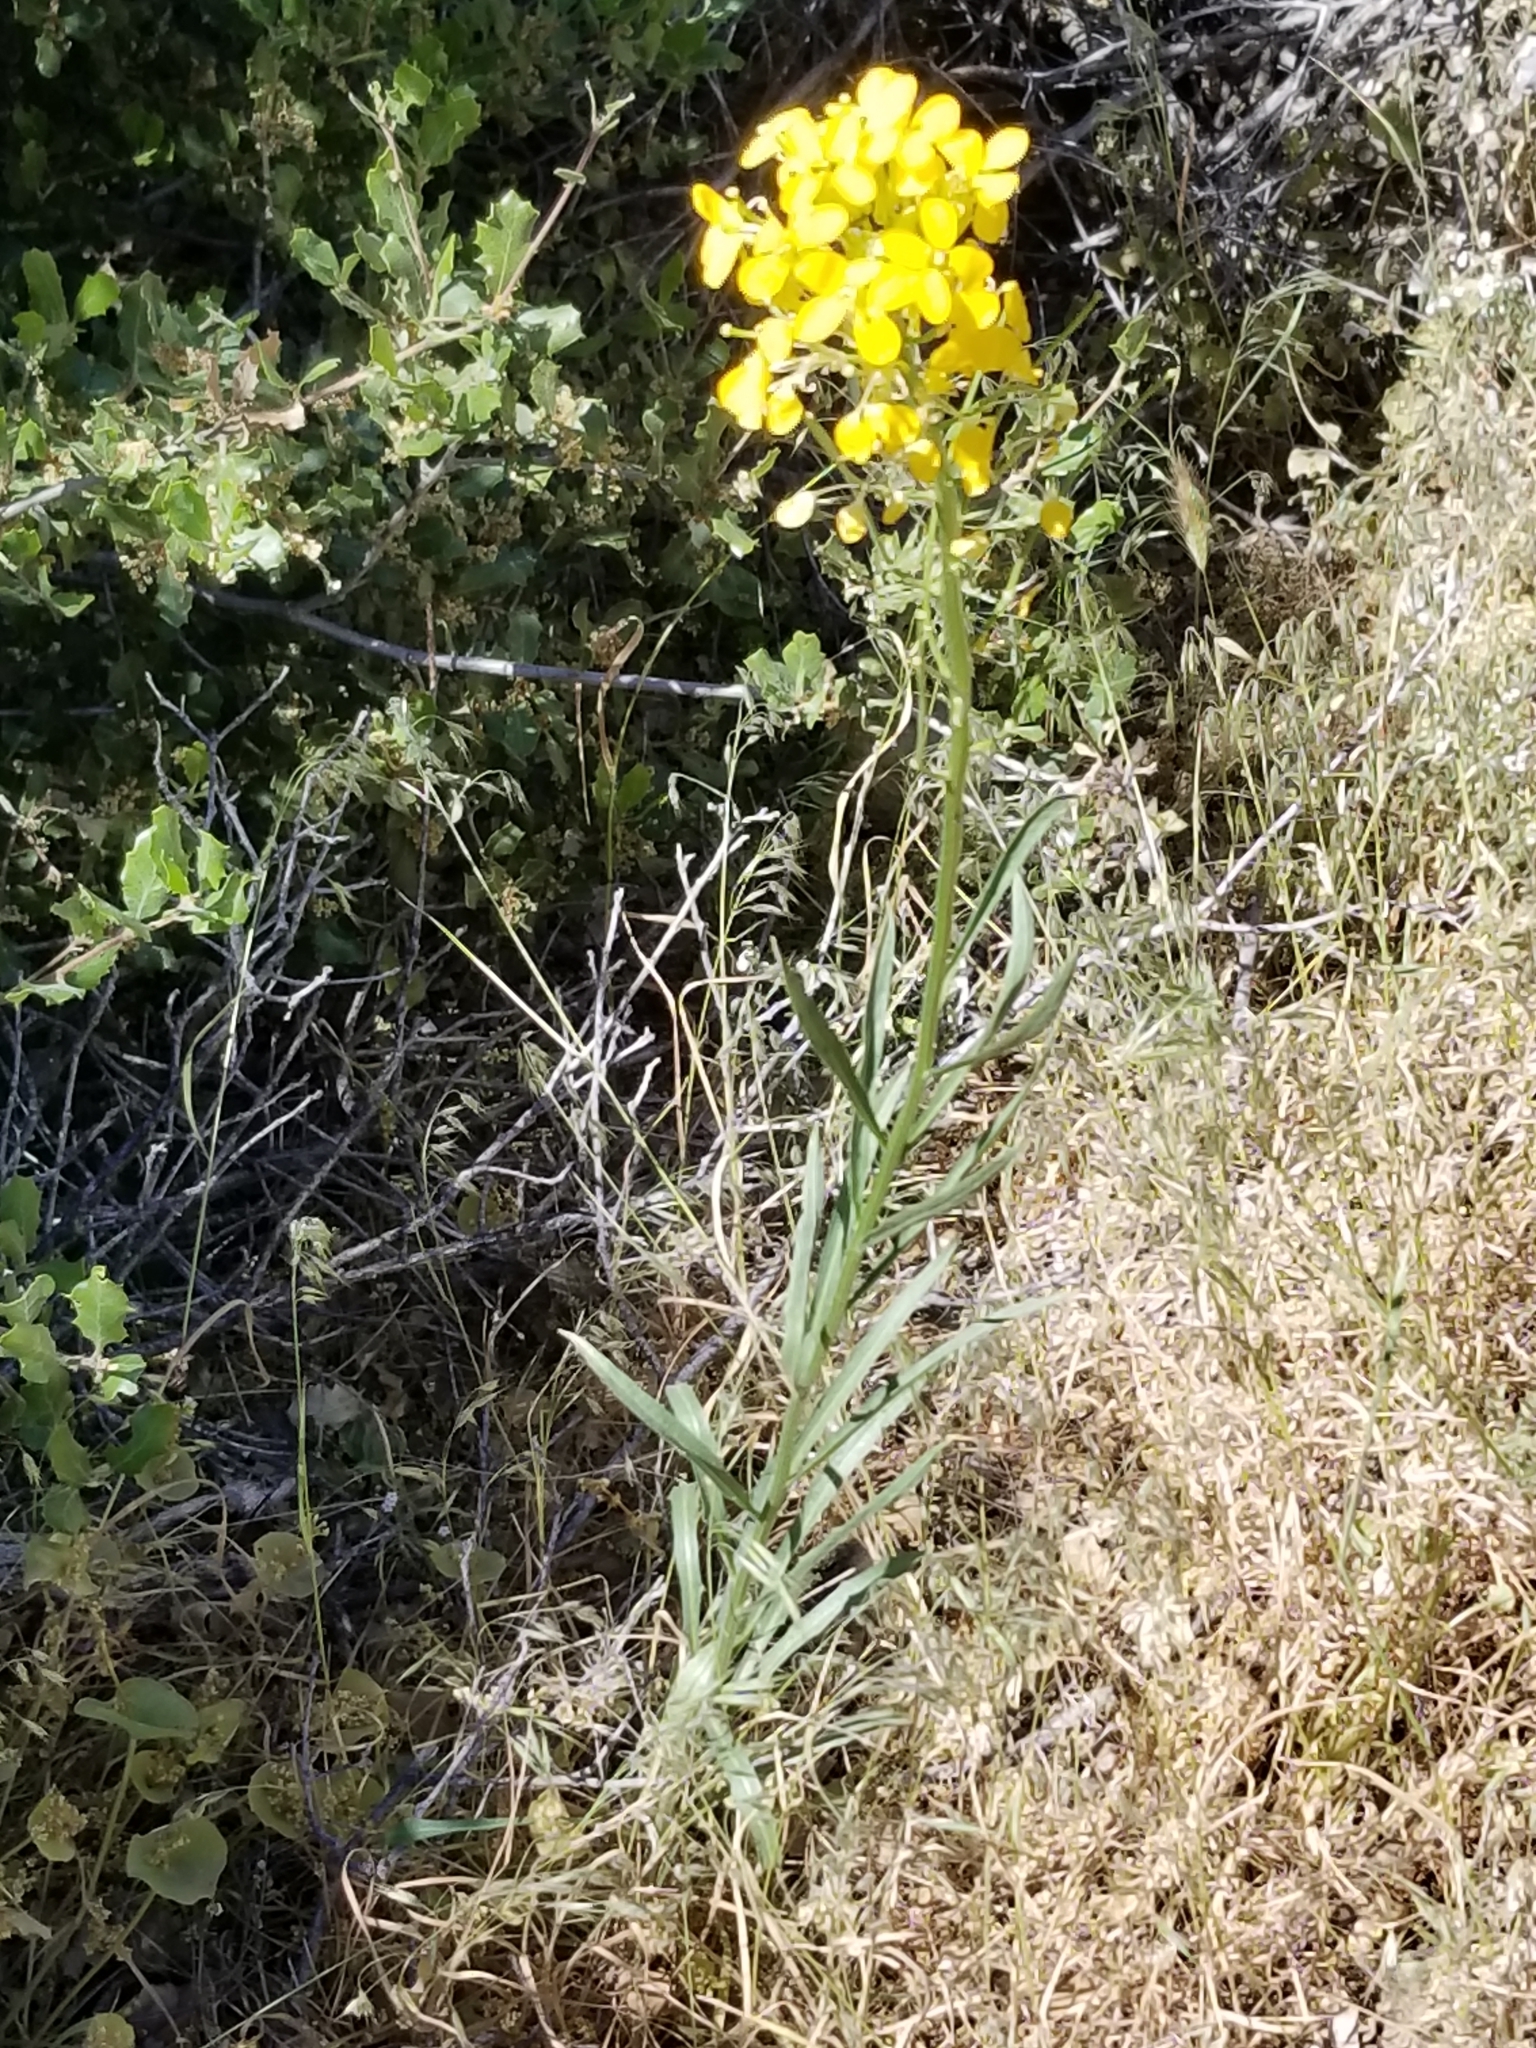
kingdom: Plantae
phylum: Tracheophyta
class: Magnoliopsida
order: Brassicales
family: Brassicaceae
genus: Erysimum
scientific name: Erysimum capitatum
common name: Western wallflower
